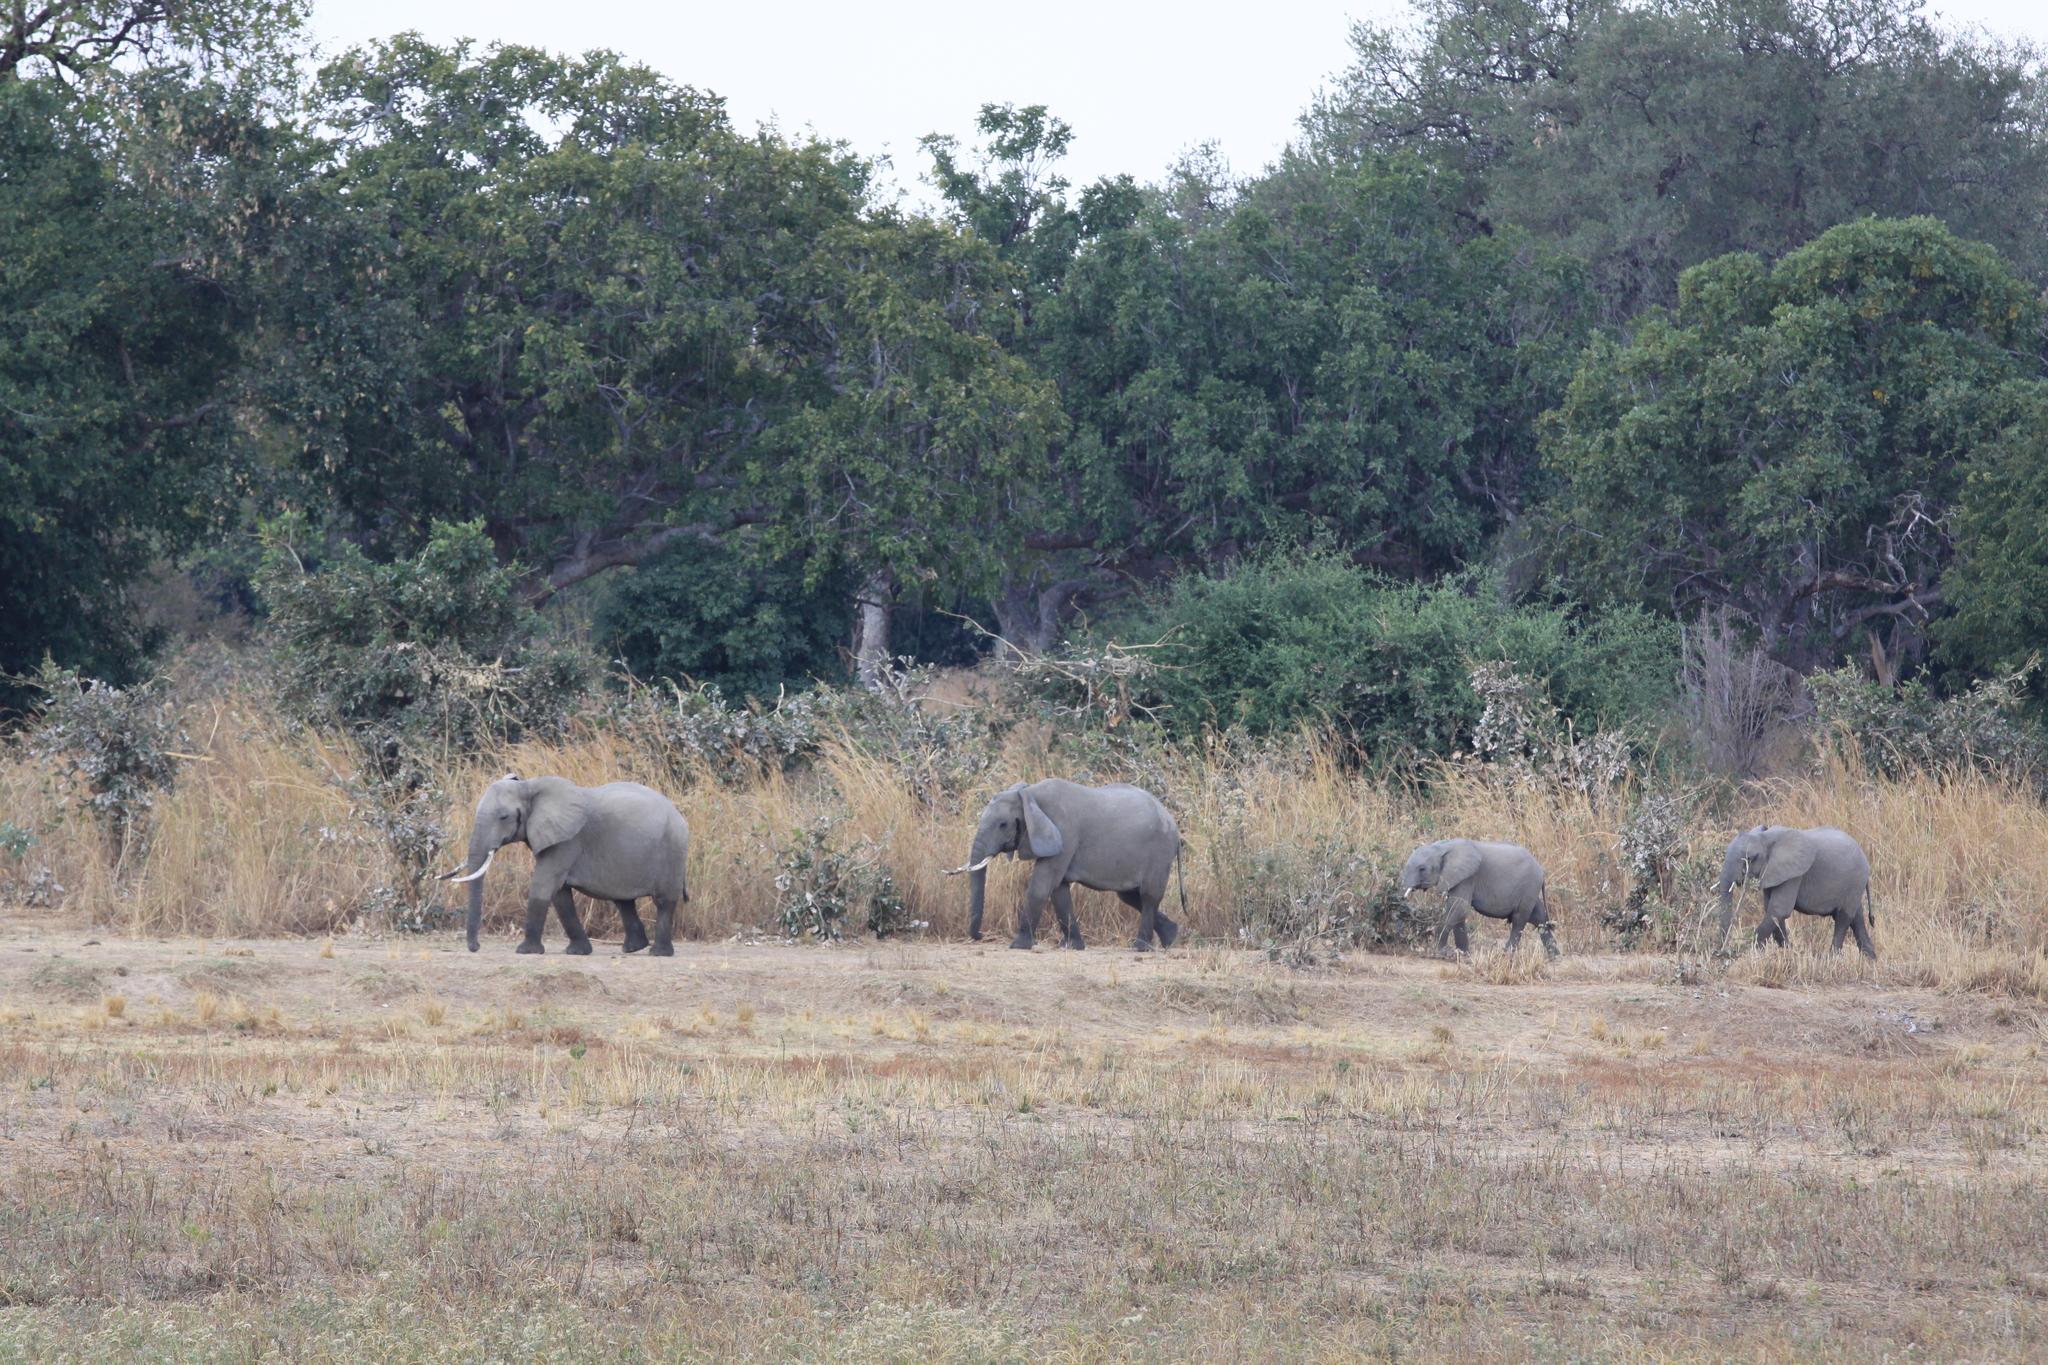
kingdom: Animalia
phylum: Chordata
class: Mammalia
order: Proboscidea
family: Elephantidae
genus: Loxodonta
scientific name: Loxodonta africana
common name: African elephant
